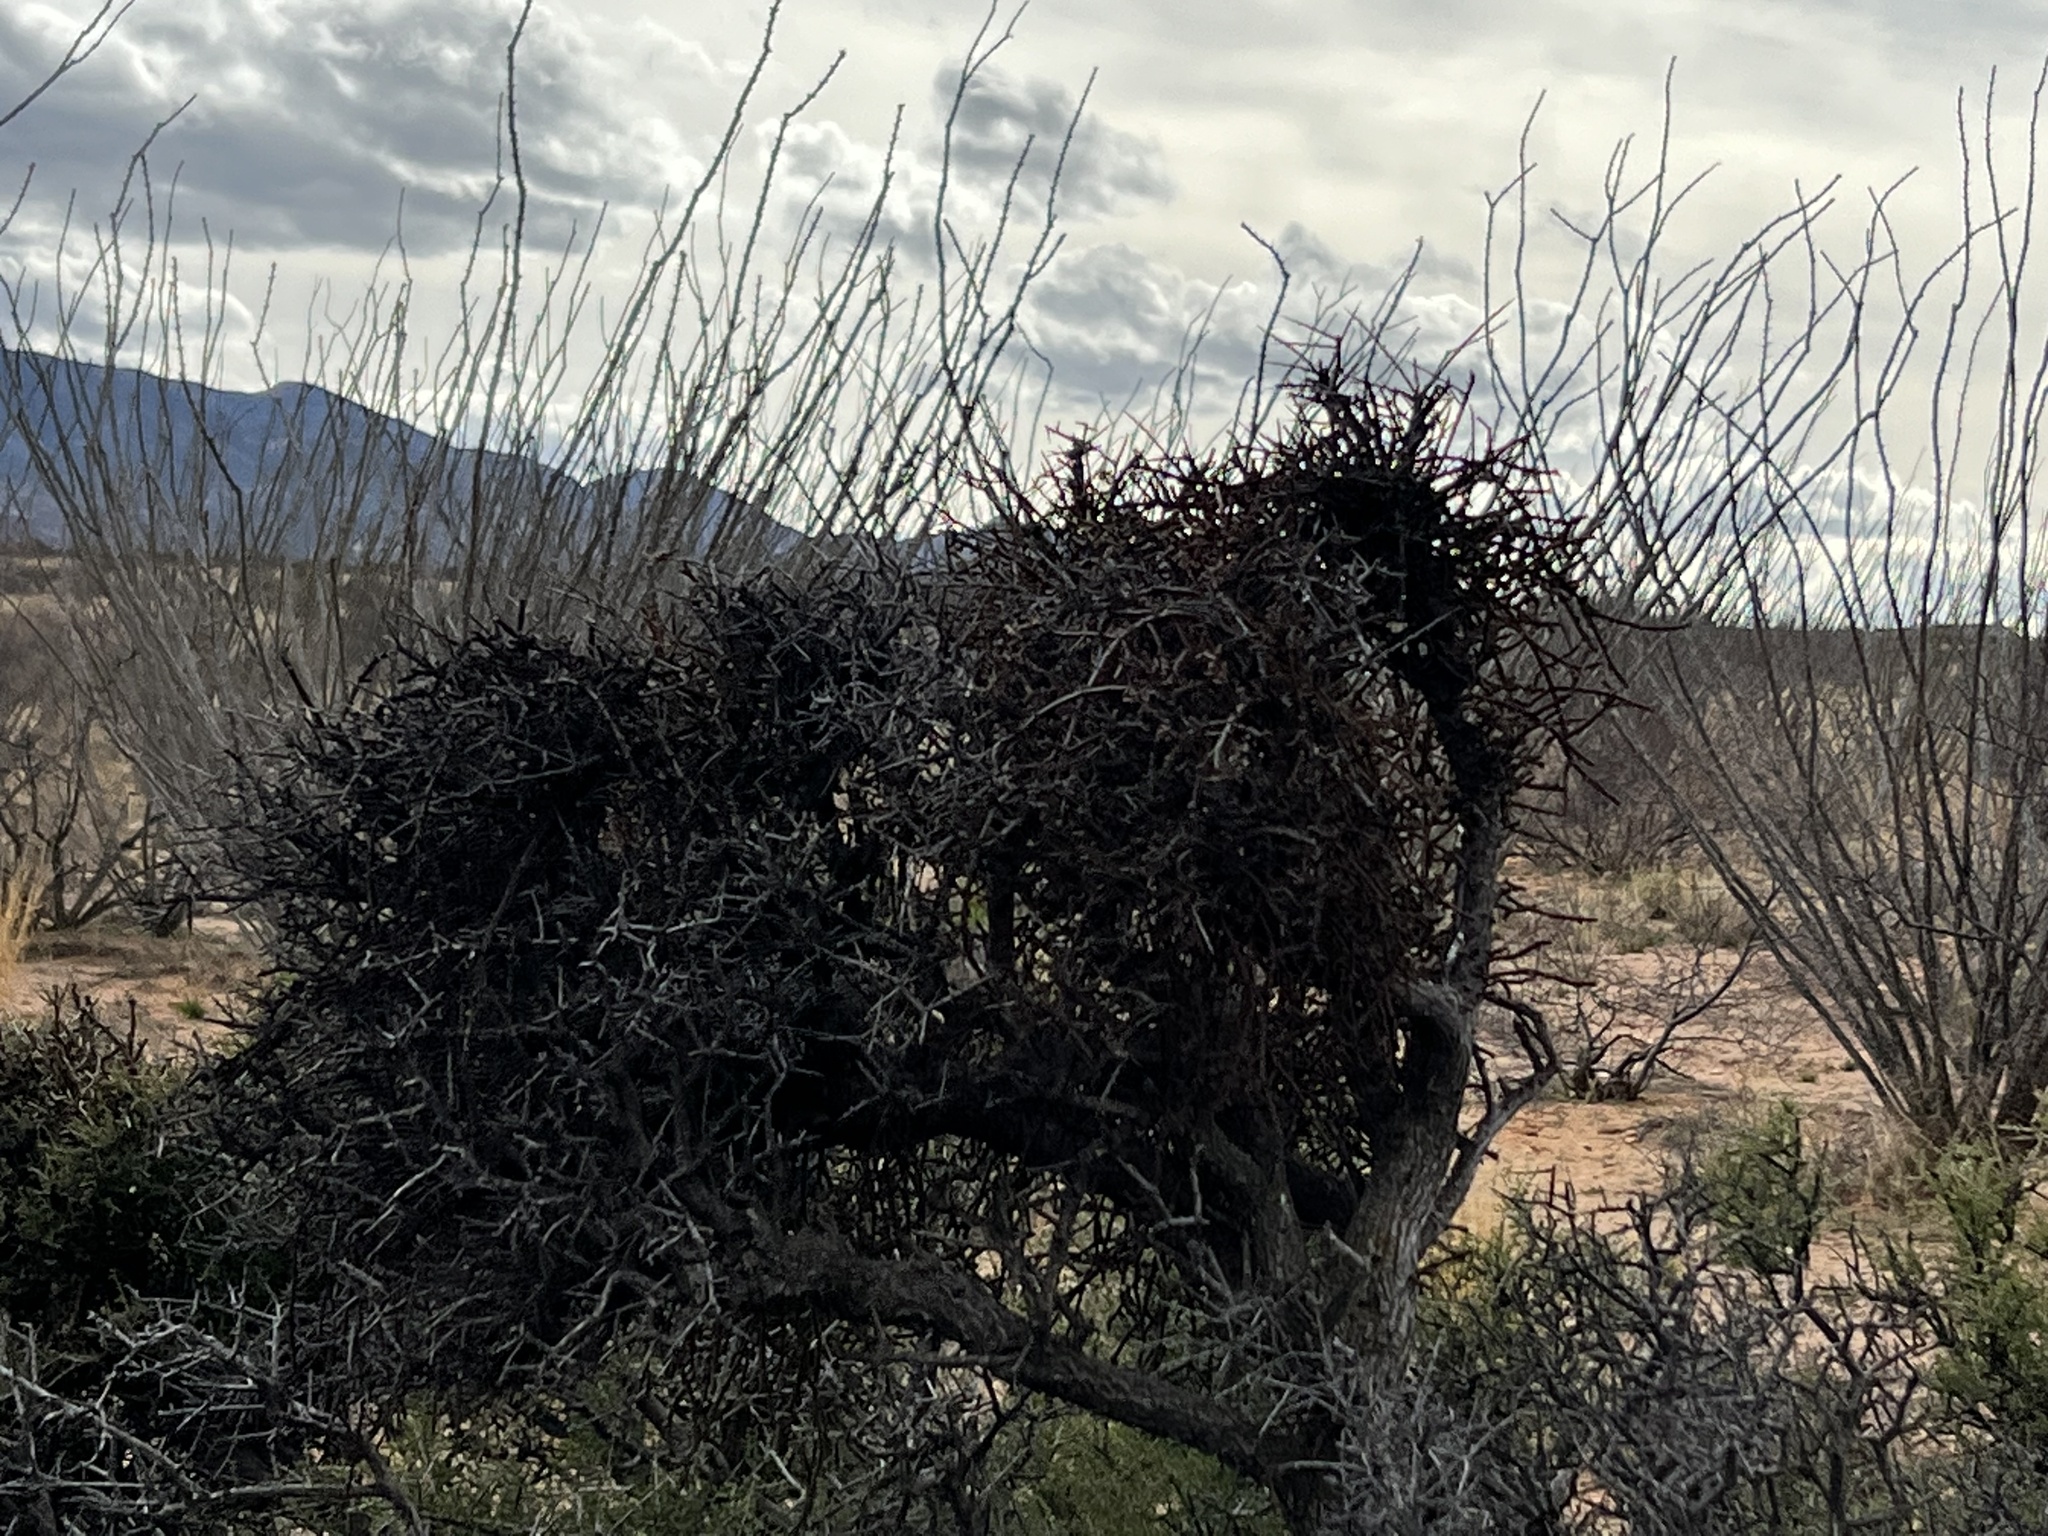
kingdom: Plantae
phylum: Tracheophyta
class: Magnoliopsida
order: Santalales
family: Viscaceae
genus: Phoradendron
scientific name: Phoradendron californicum
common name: Acacia mistletoe
